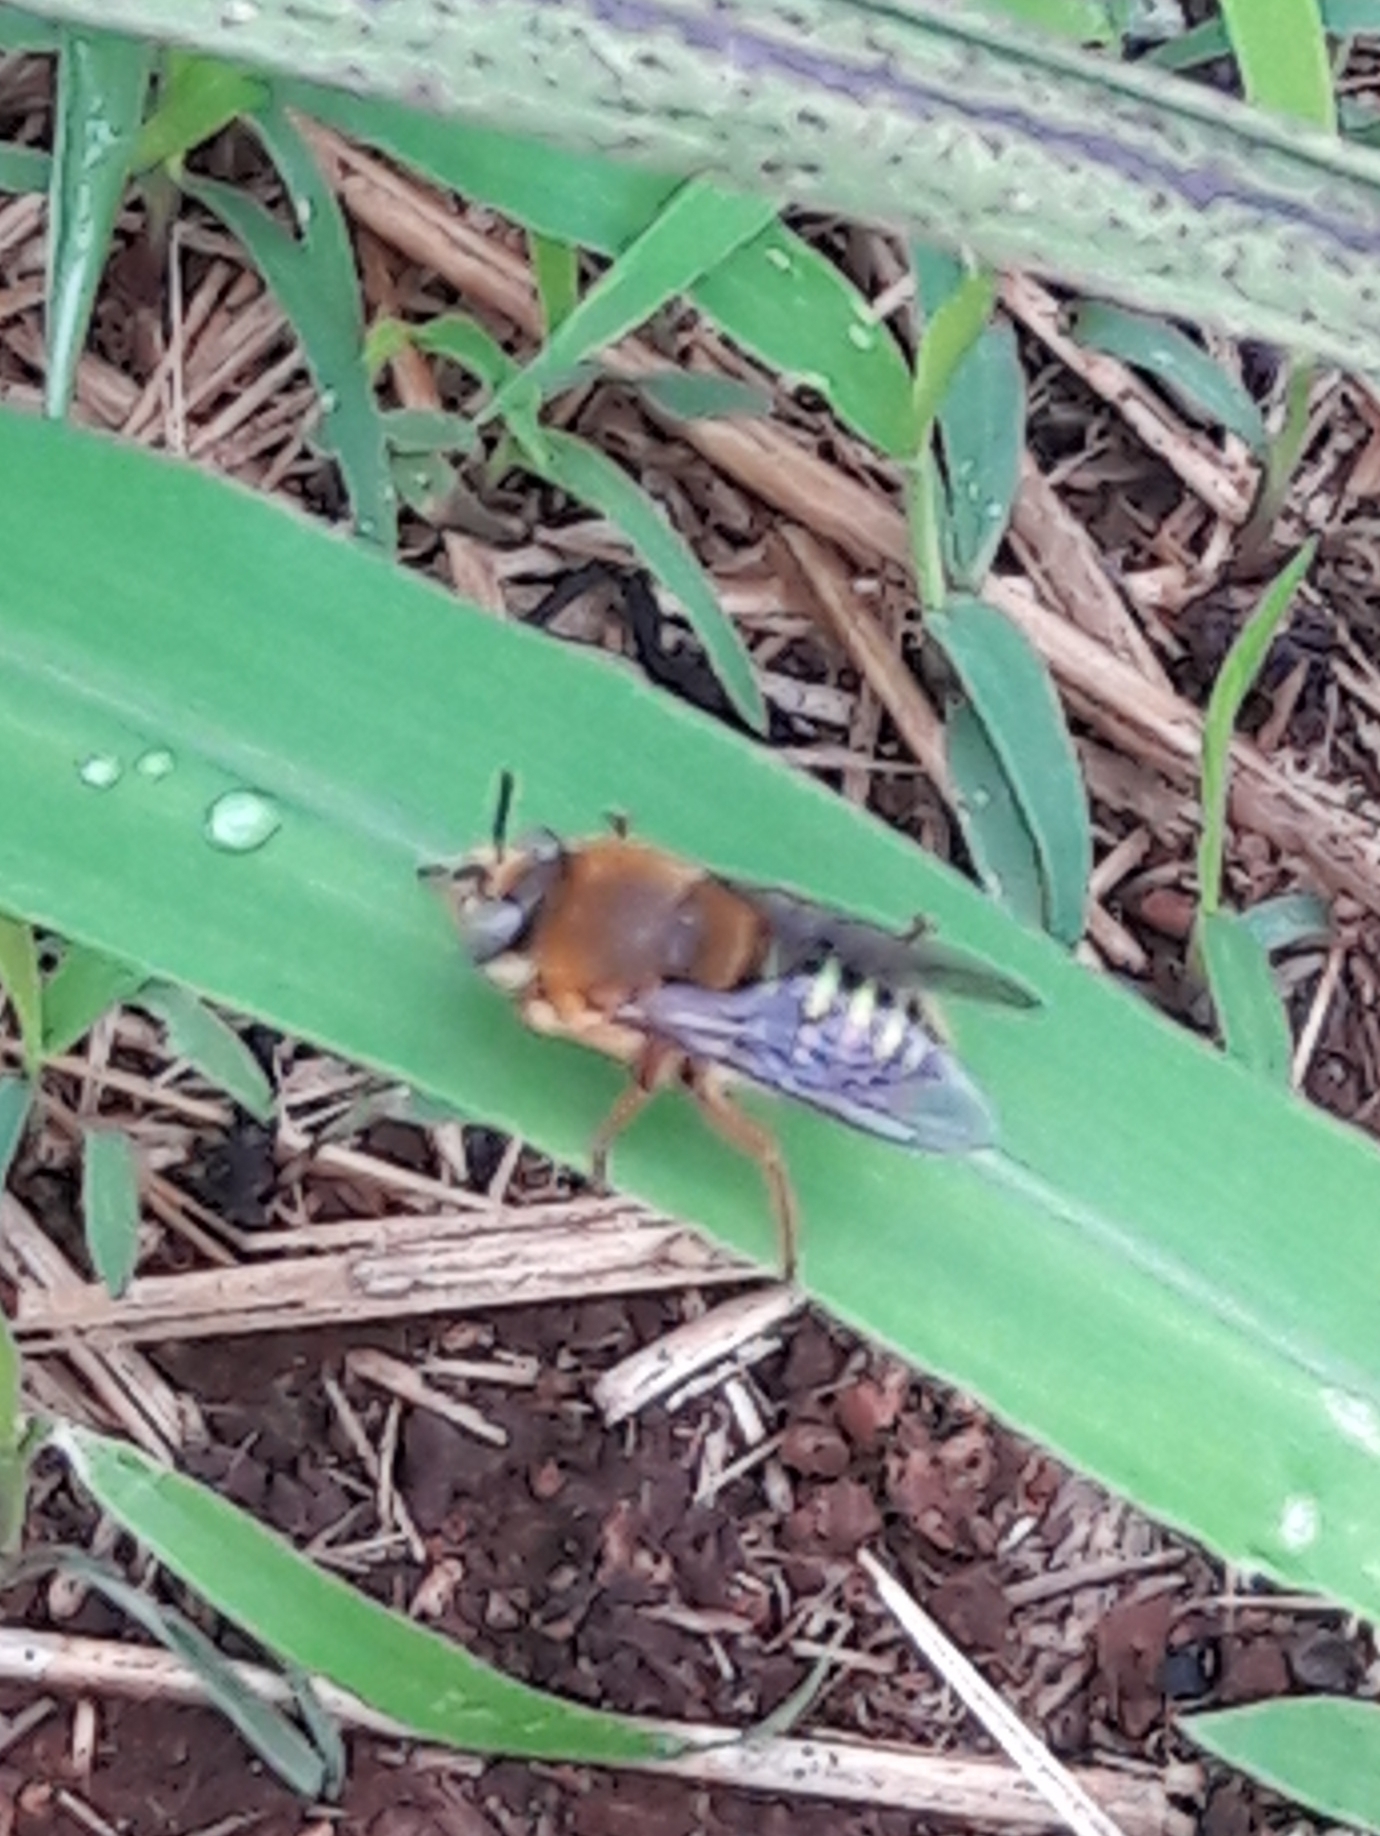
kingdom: Animalia
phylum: Arthropoda
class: Insecta
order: Hymenoptera
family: Andrenidae
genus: Oxaea
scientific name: Oxaea flavescens
